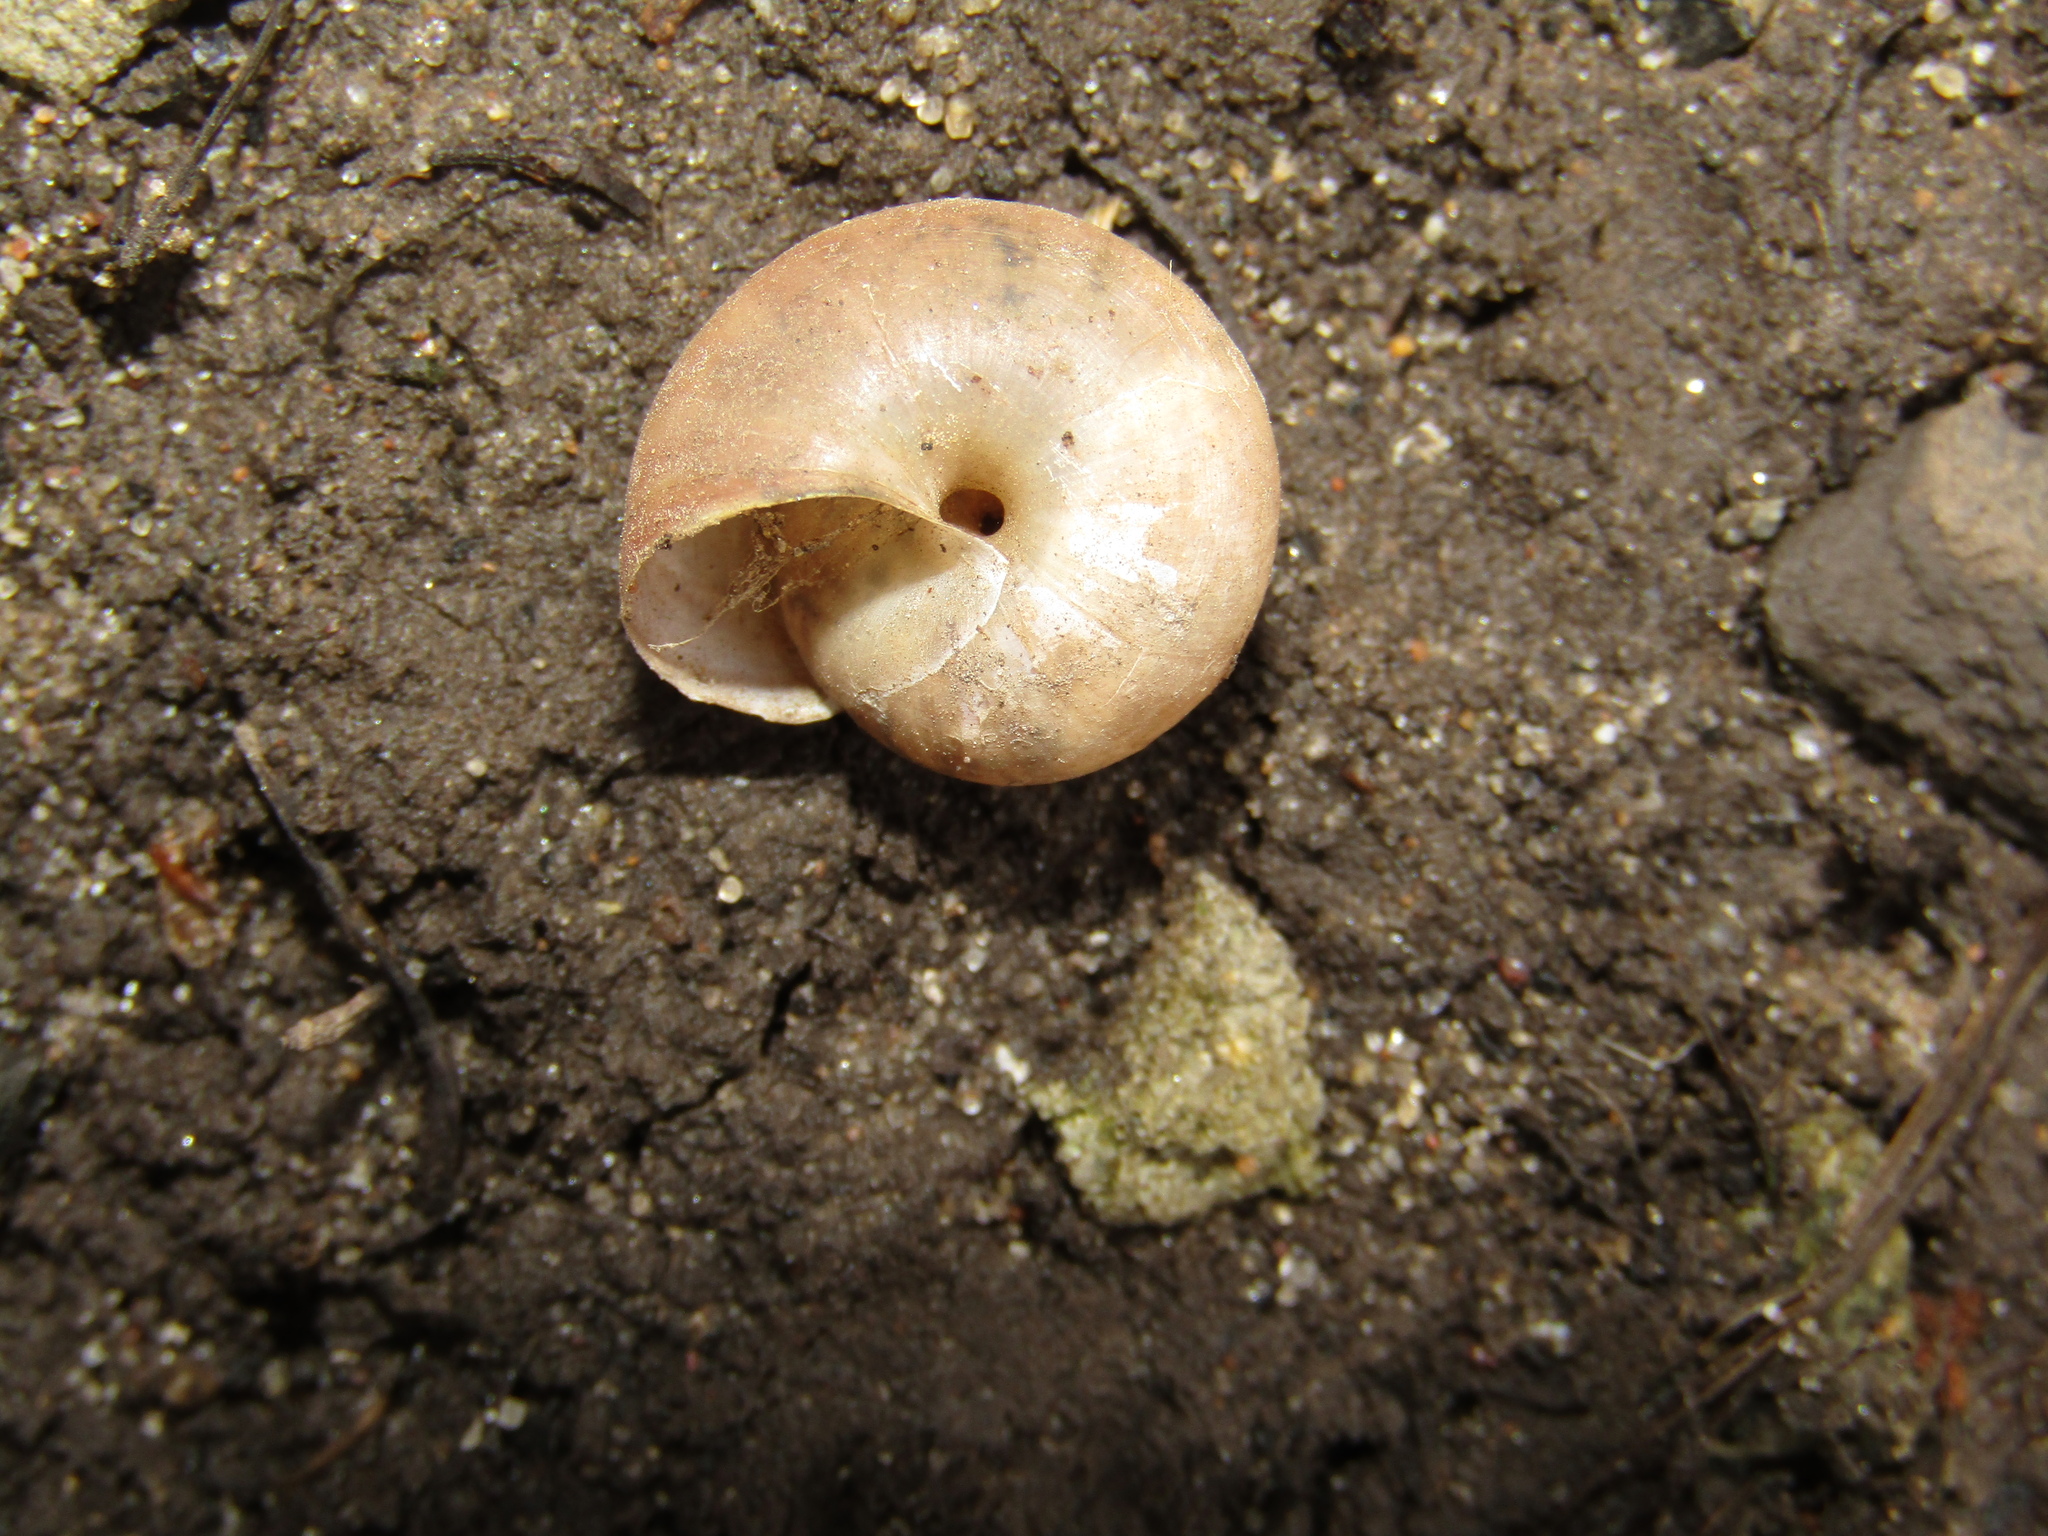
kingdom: Animalia
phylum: Mollusca
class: Gastropoda
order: Stylommatophora
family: Camaenidae
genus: Fruticicola
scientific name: Fruticicola fruticum
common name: Bush snail
